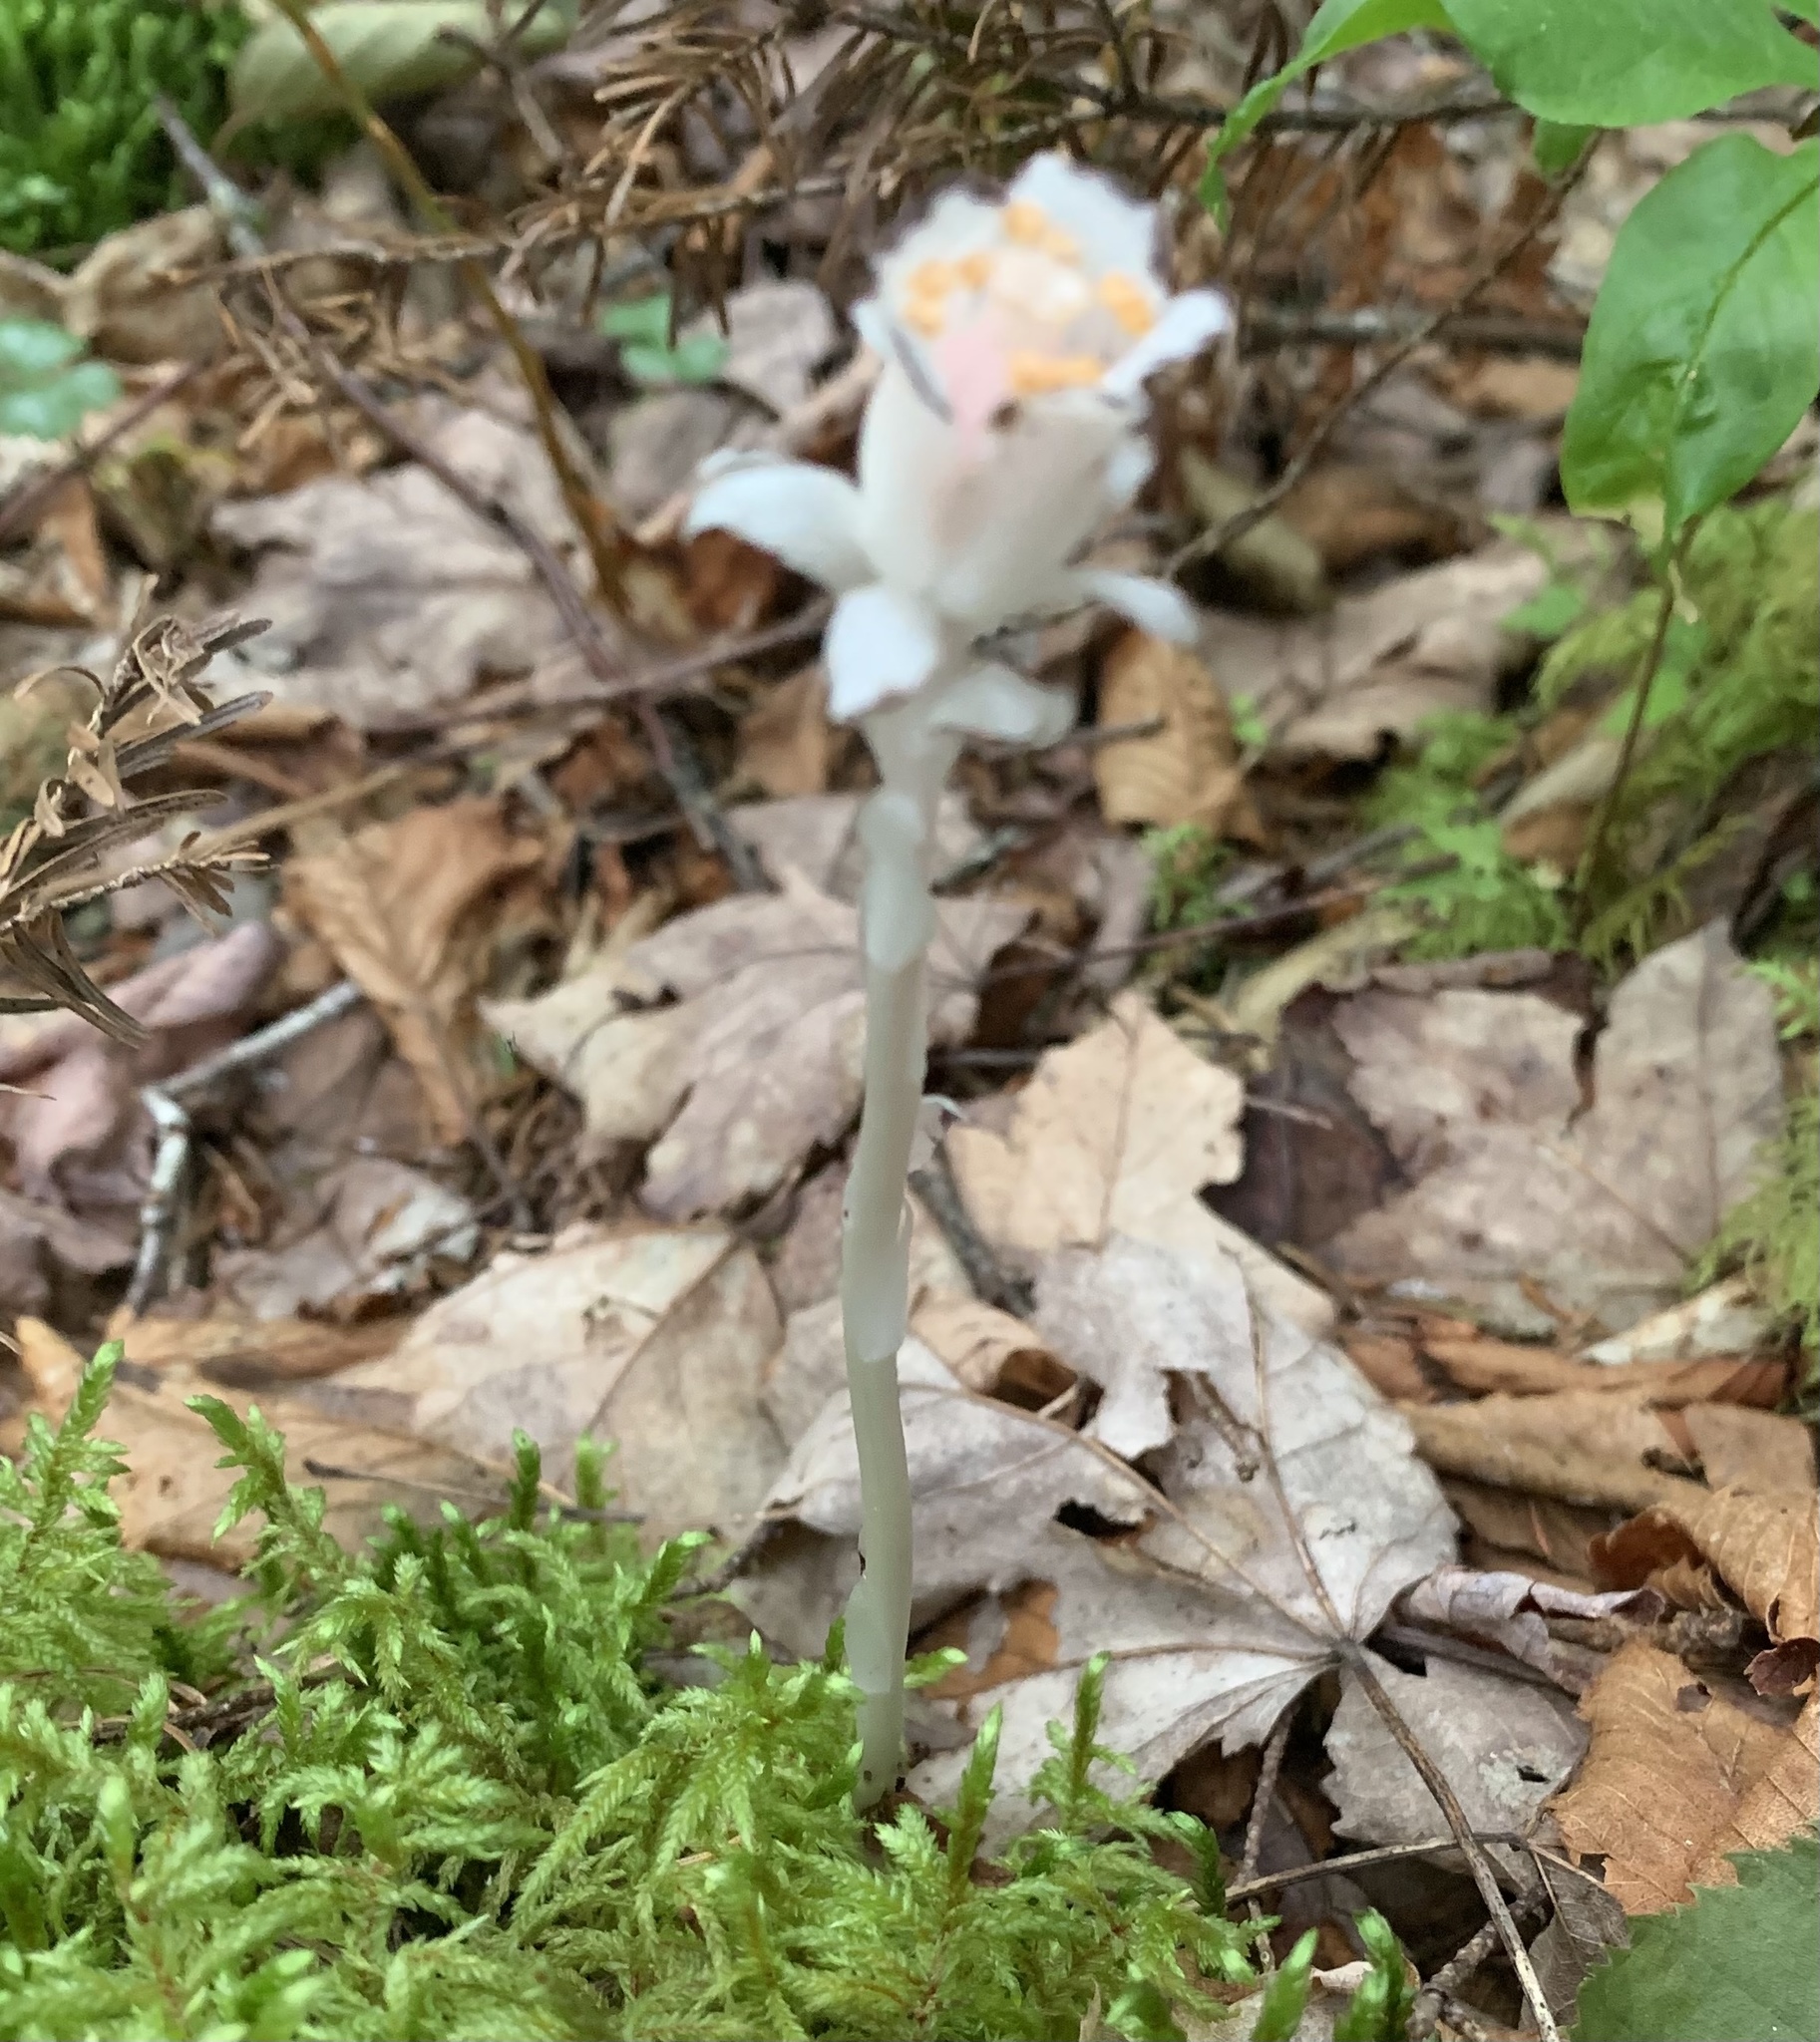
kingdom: Plantae
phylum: Tracheophyta
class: Magnoliopsida
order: Ericales
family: Ericaceae
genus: Monotropa
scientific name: Monotropa uniflora
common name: Convulsion root
